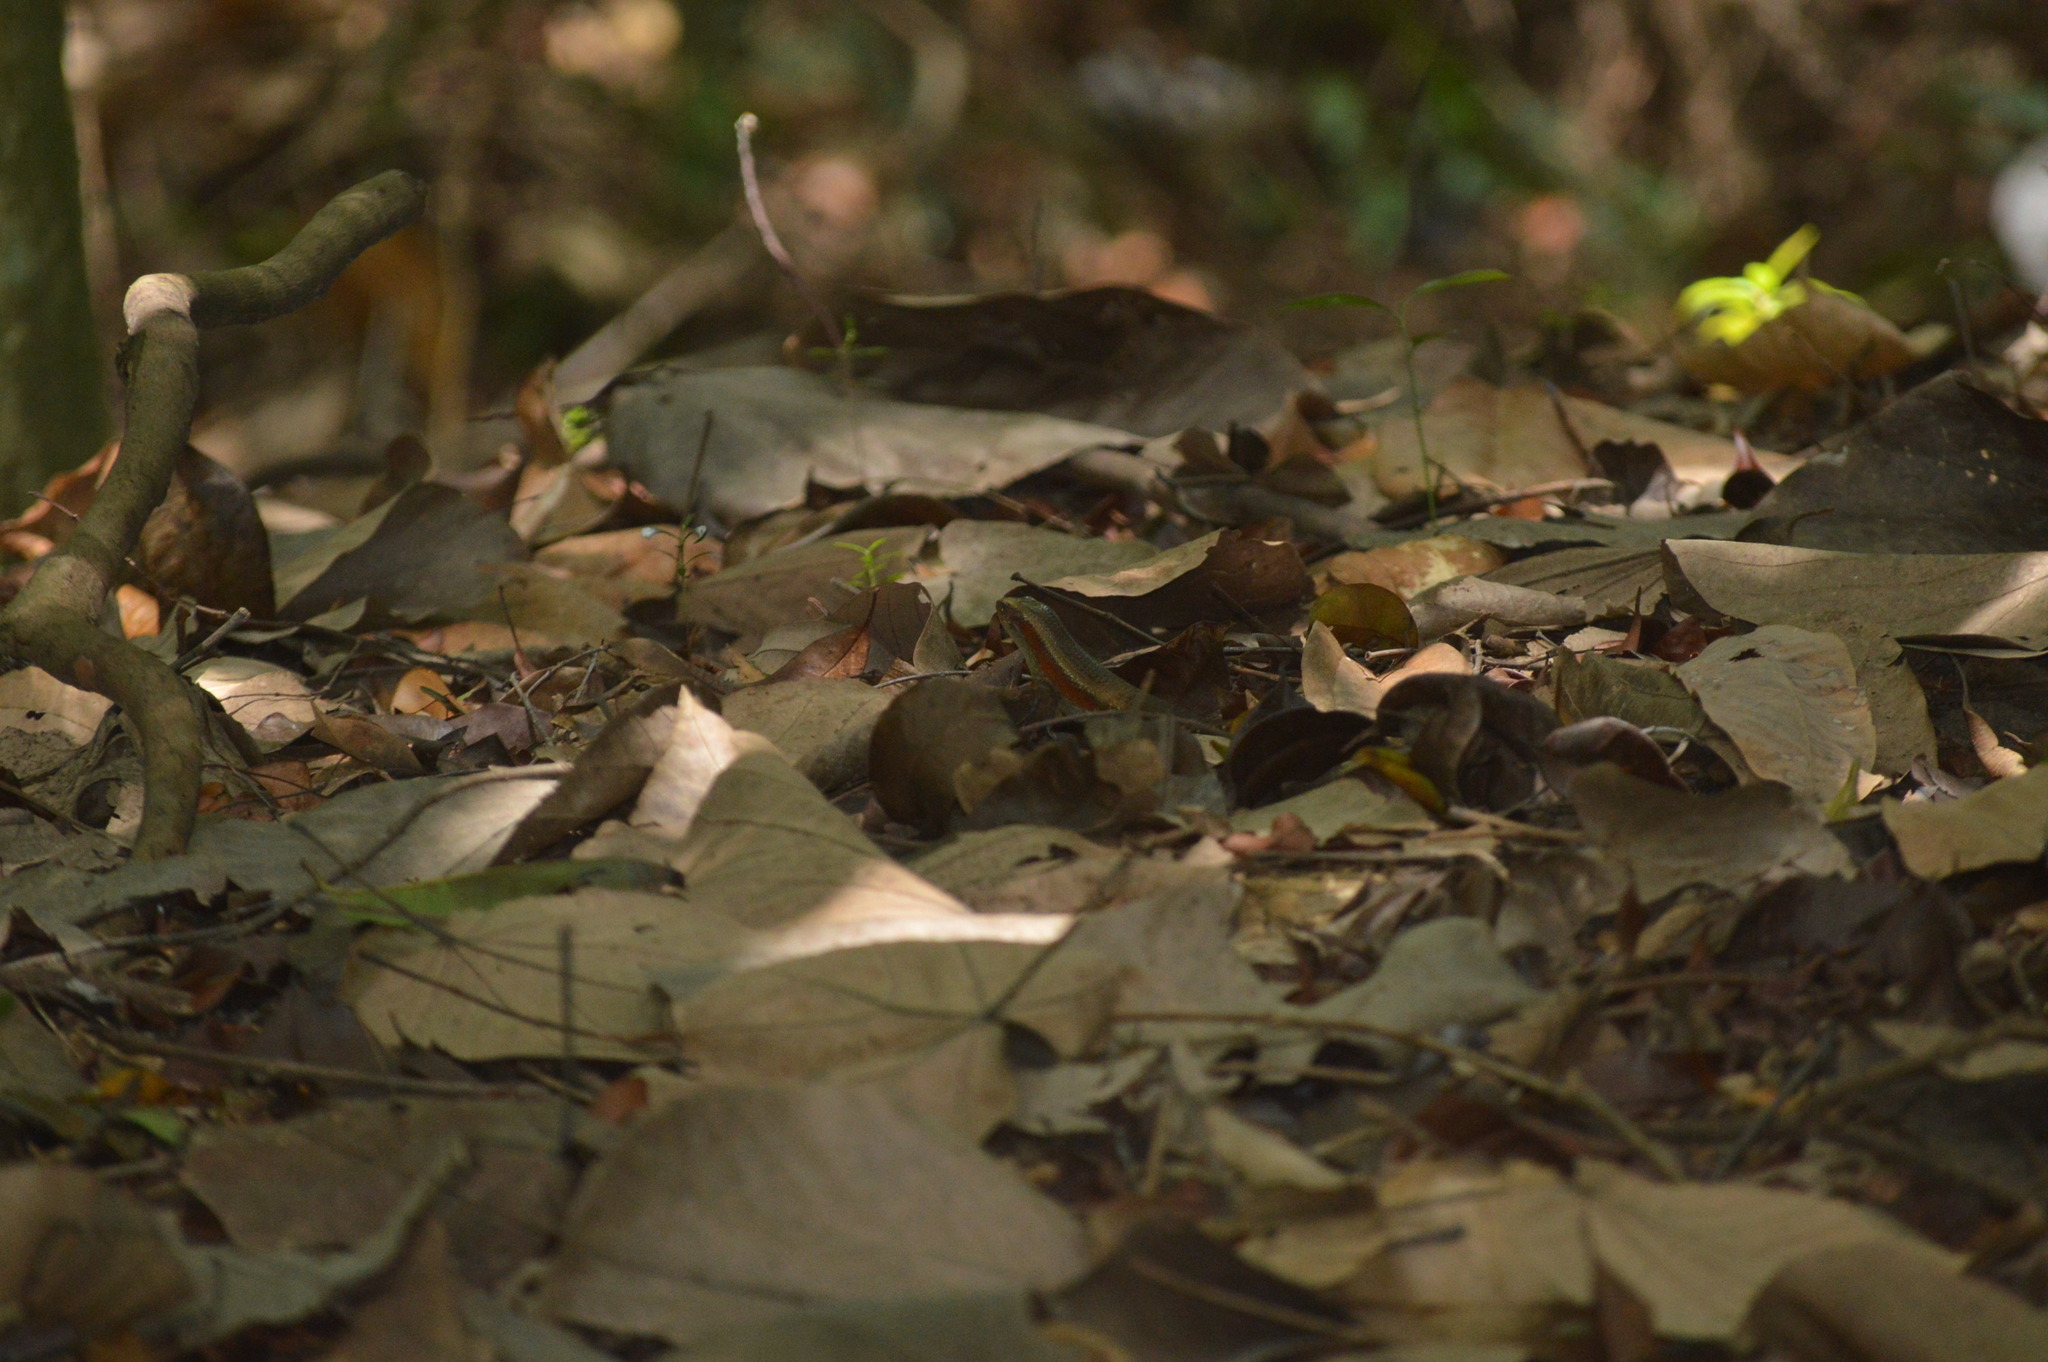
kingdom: Animalia
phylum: Chordata
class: Squamata
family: Scincidae
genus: Eutropis
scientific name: Eutropis multifasciata
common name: Common mabuya
